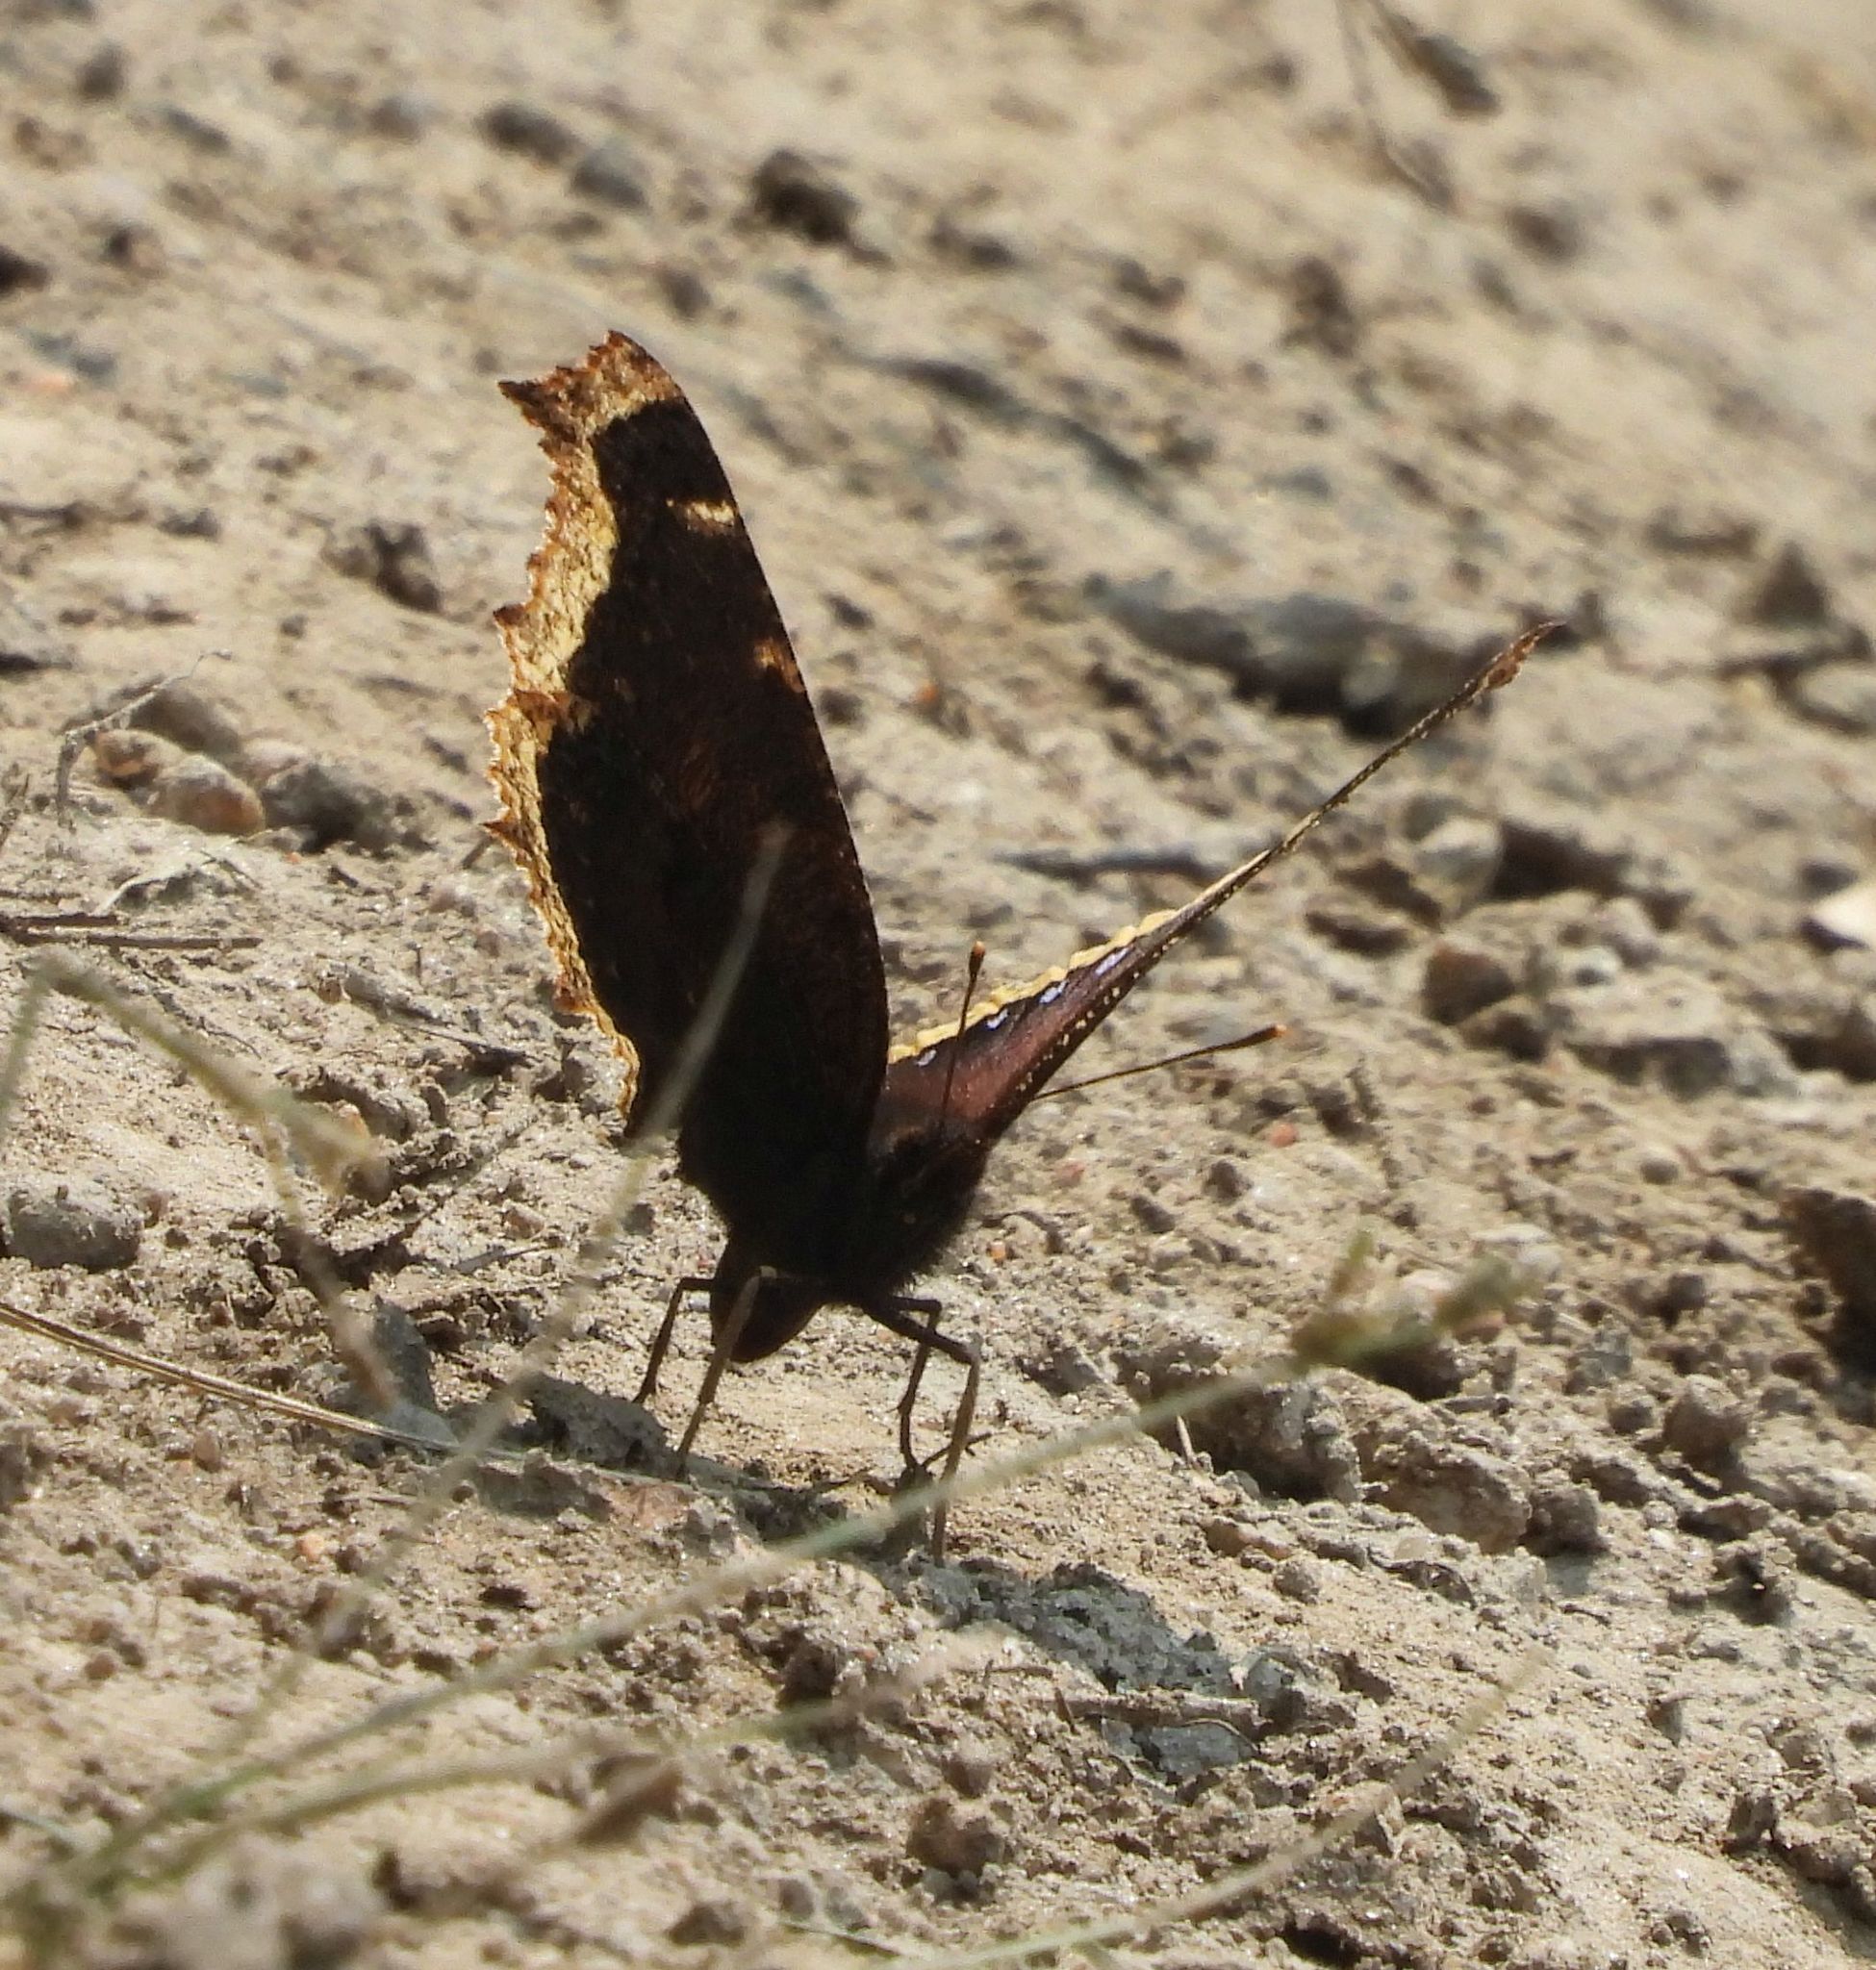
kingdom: Animalia
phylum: Arthropoda
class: Insecta
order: Lepidoptera
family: Nymphalidae
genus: Nymphalis
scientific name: Nymphalis antiopa
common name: Camberwell beauty
